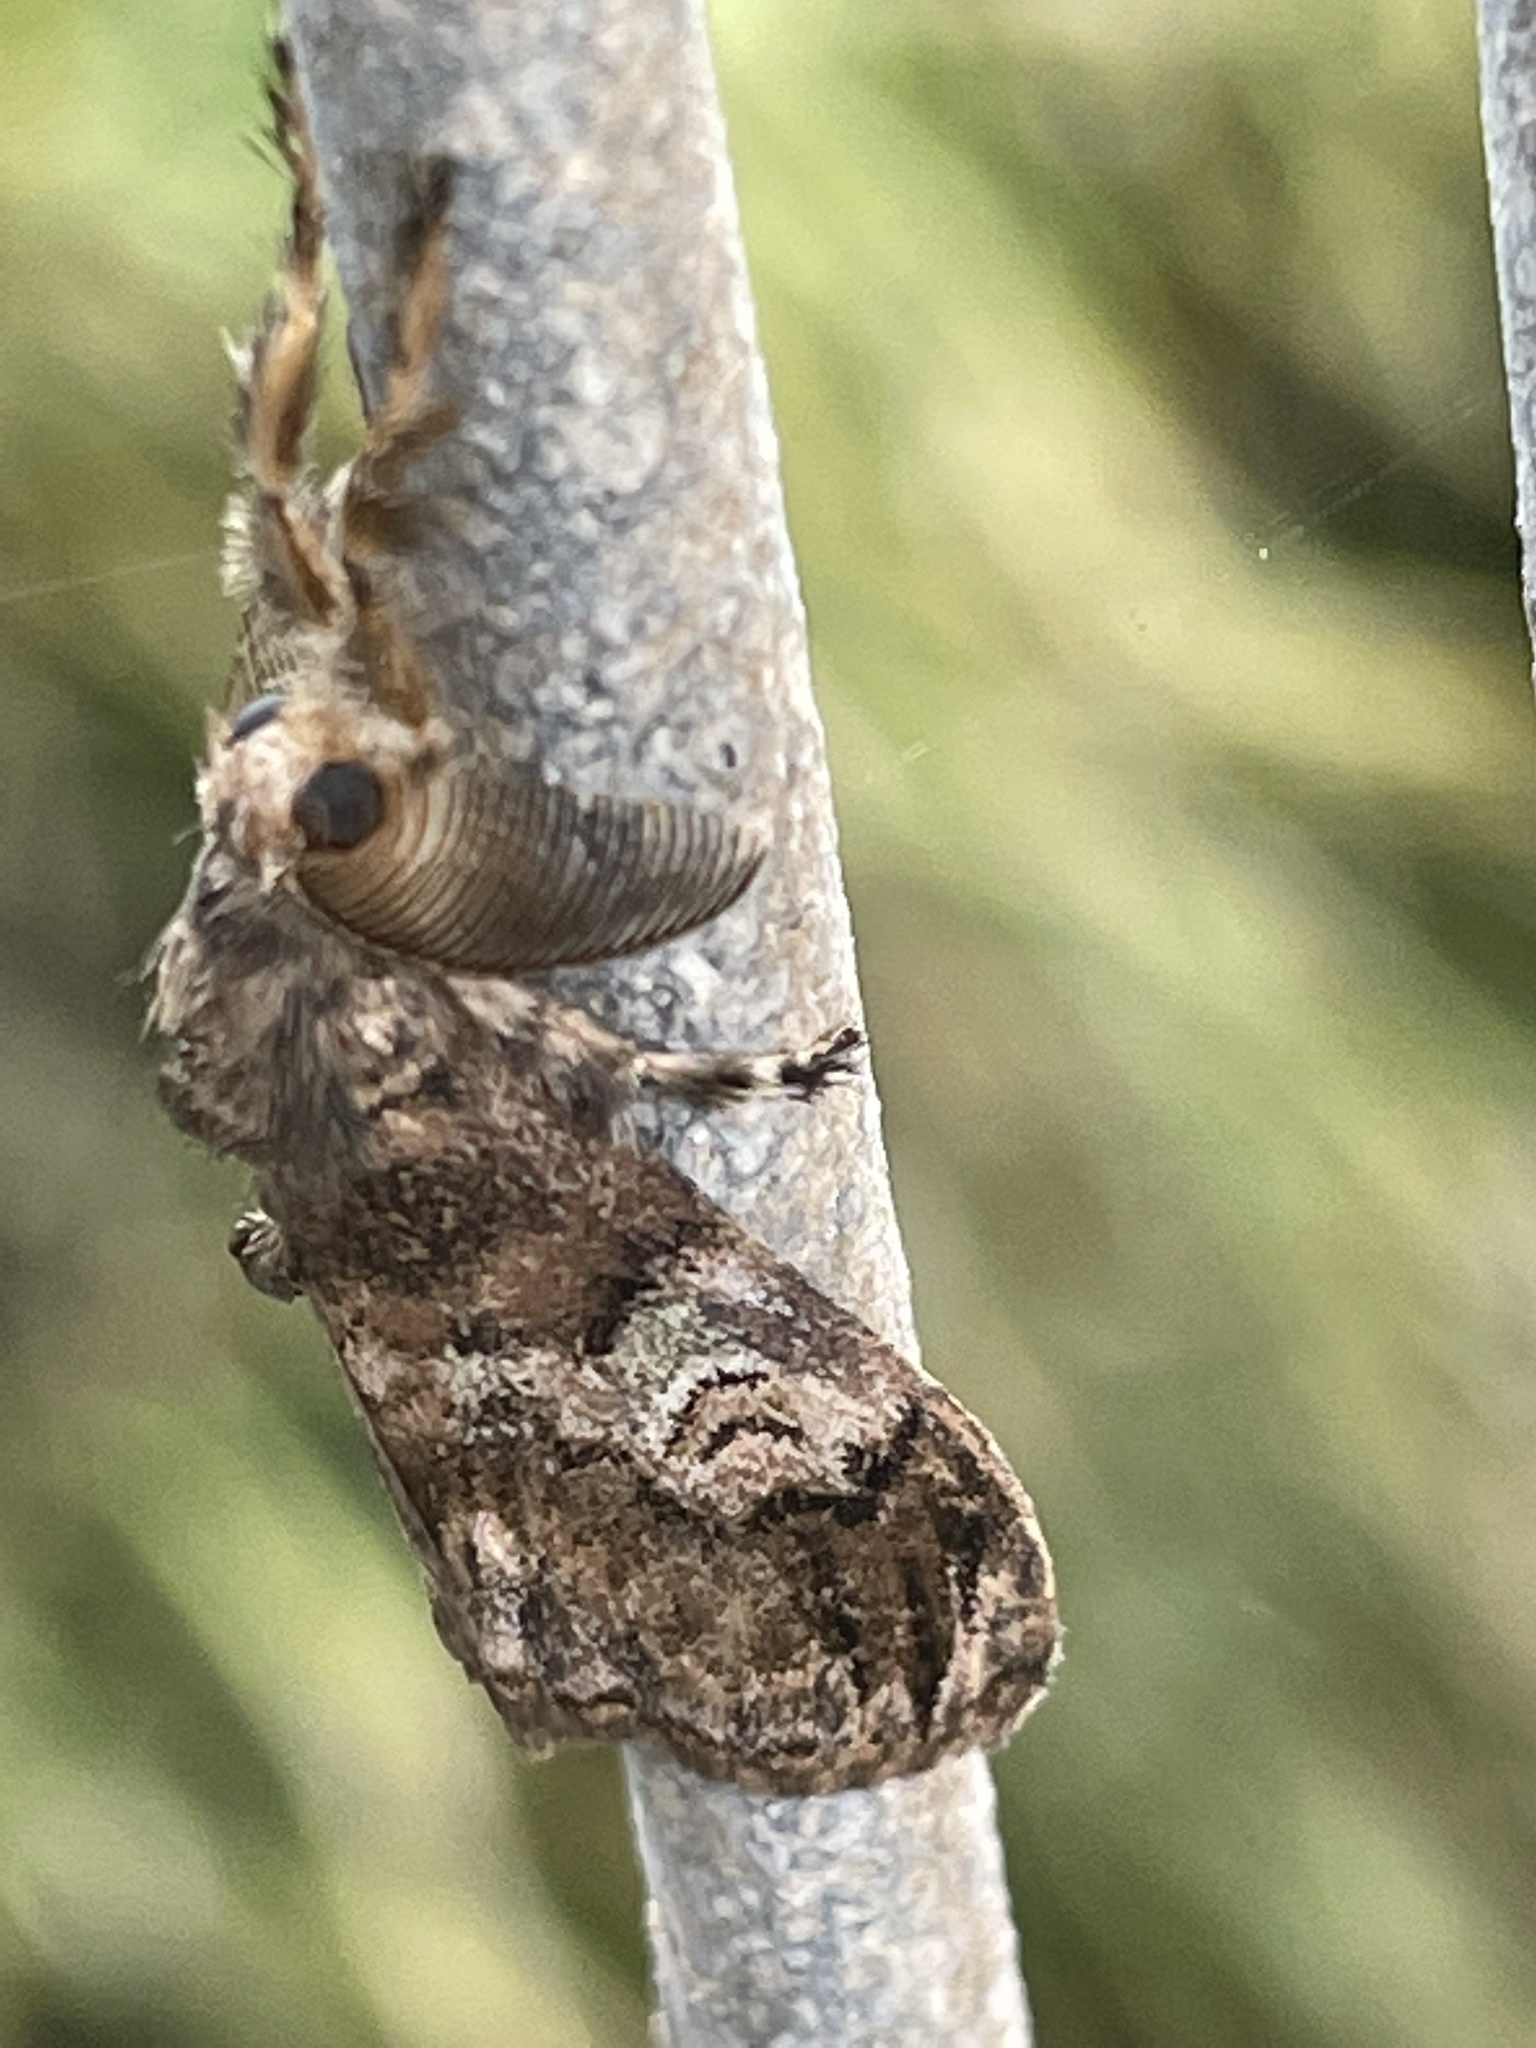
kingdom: Animalia
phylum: Arthropoda
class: Insecta
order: Lepidoptera
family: Erebidae
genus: Orgyia
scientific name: Orgyia australis
